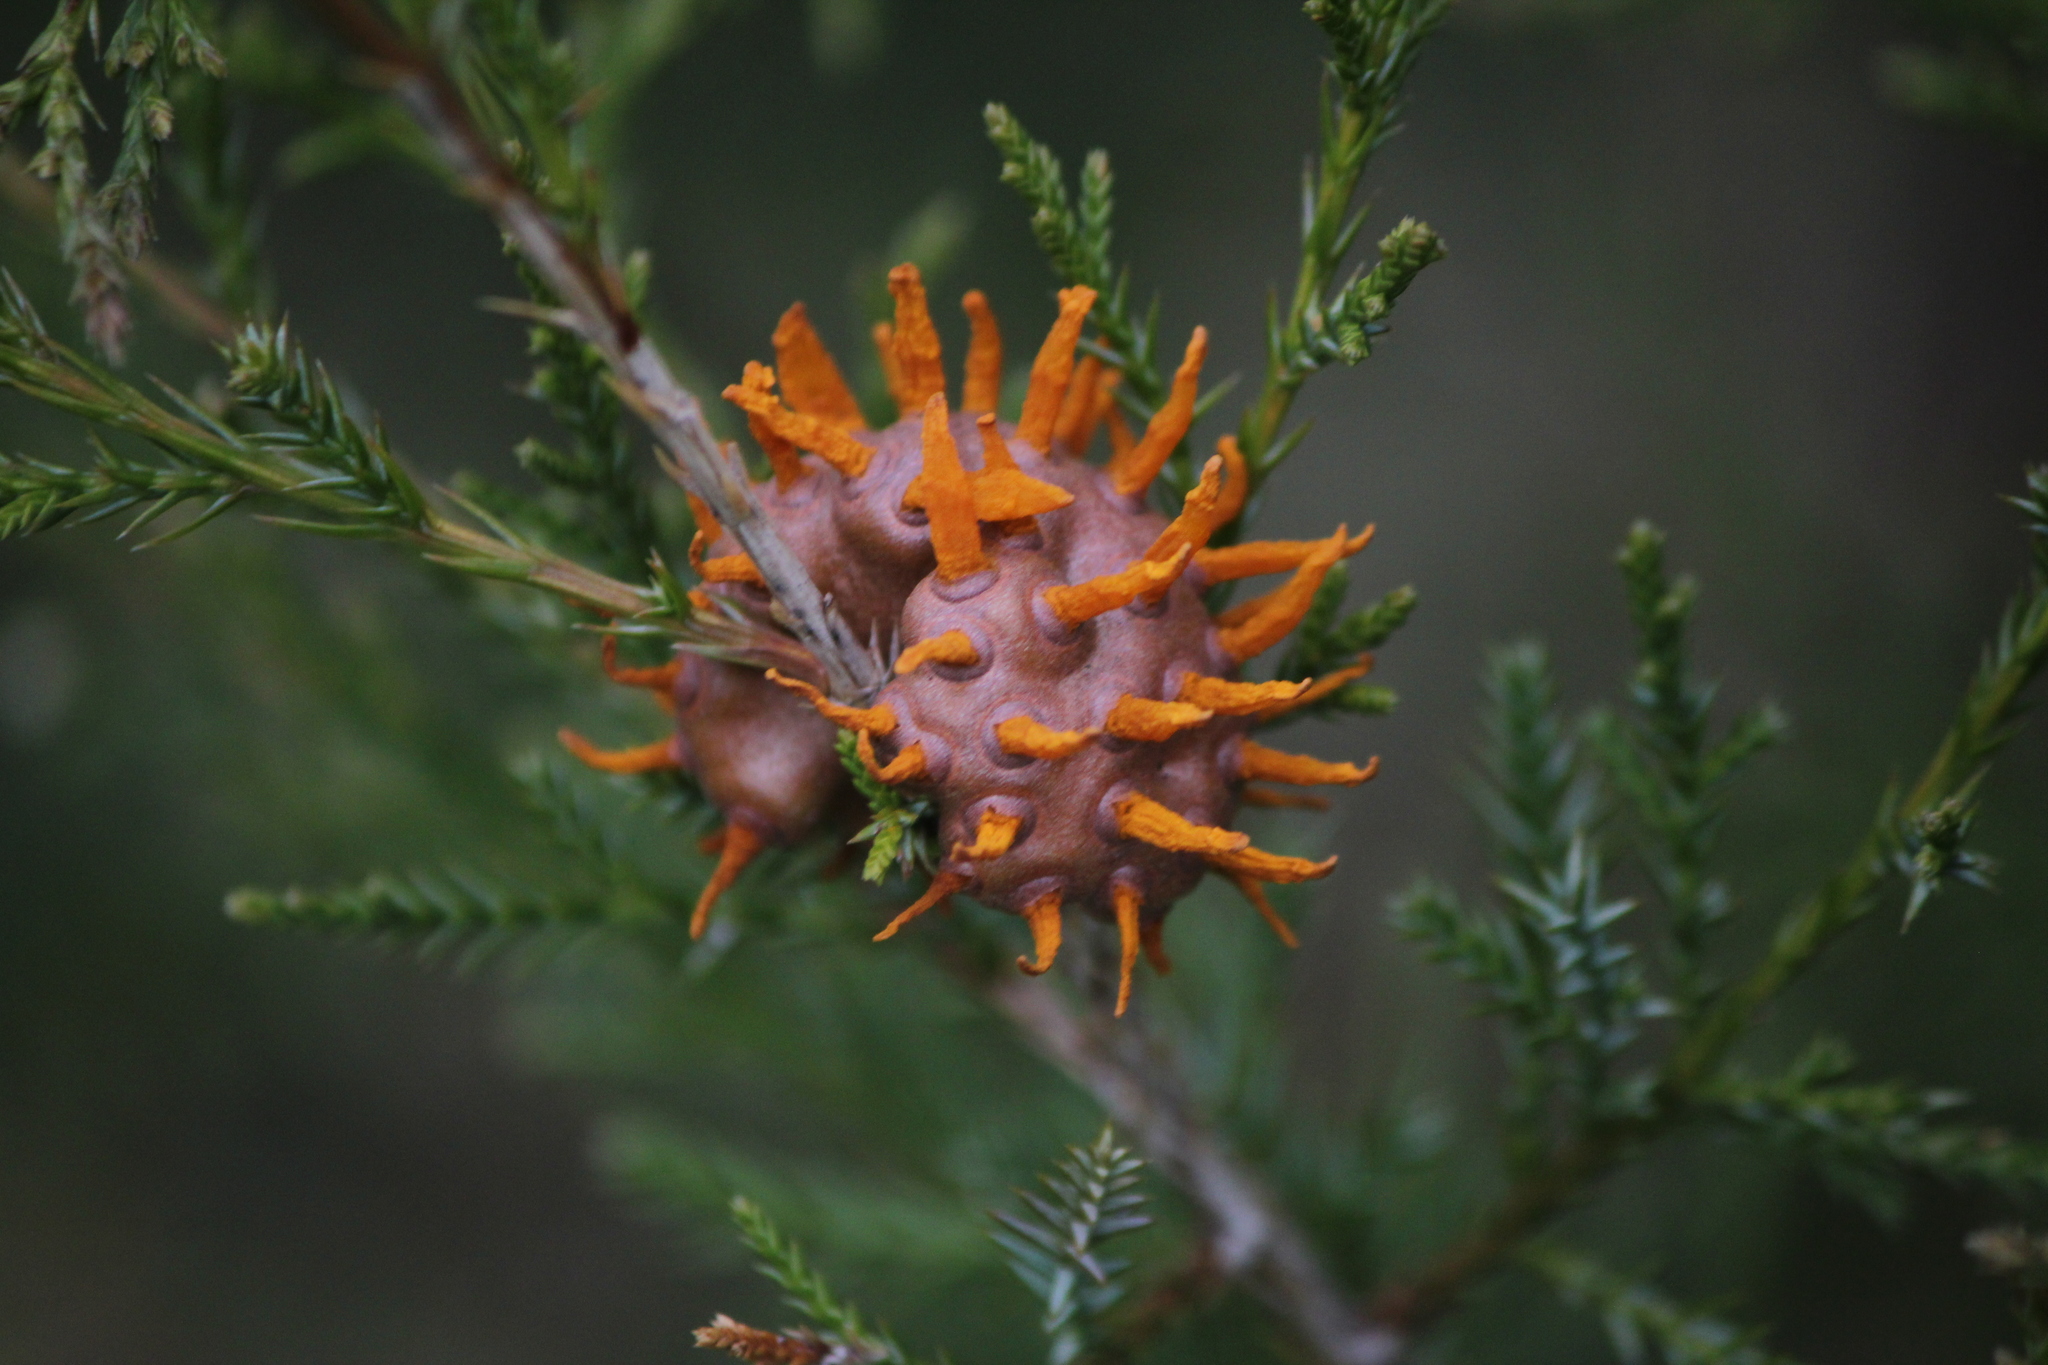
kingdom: Fungi
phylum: Basidiomycota
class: Pucciniomycetes
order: Pucciniales
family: Gymnosporangiaceae
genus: Gymnosporangium
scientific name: Gymnosporangium juniperi-virginianae
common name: Juniper-apple rust
